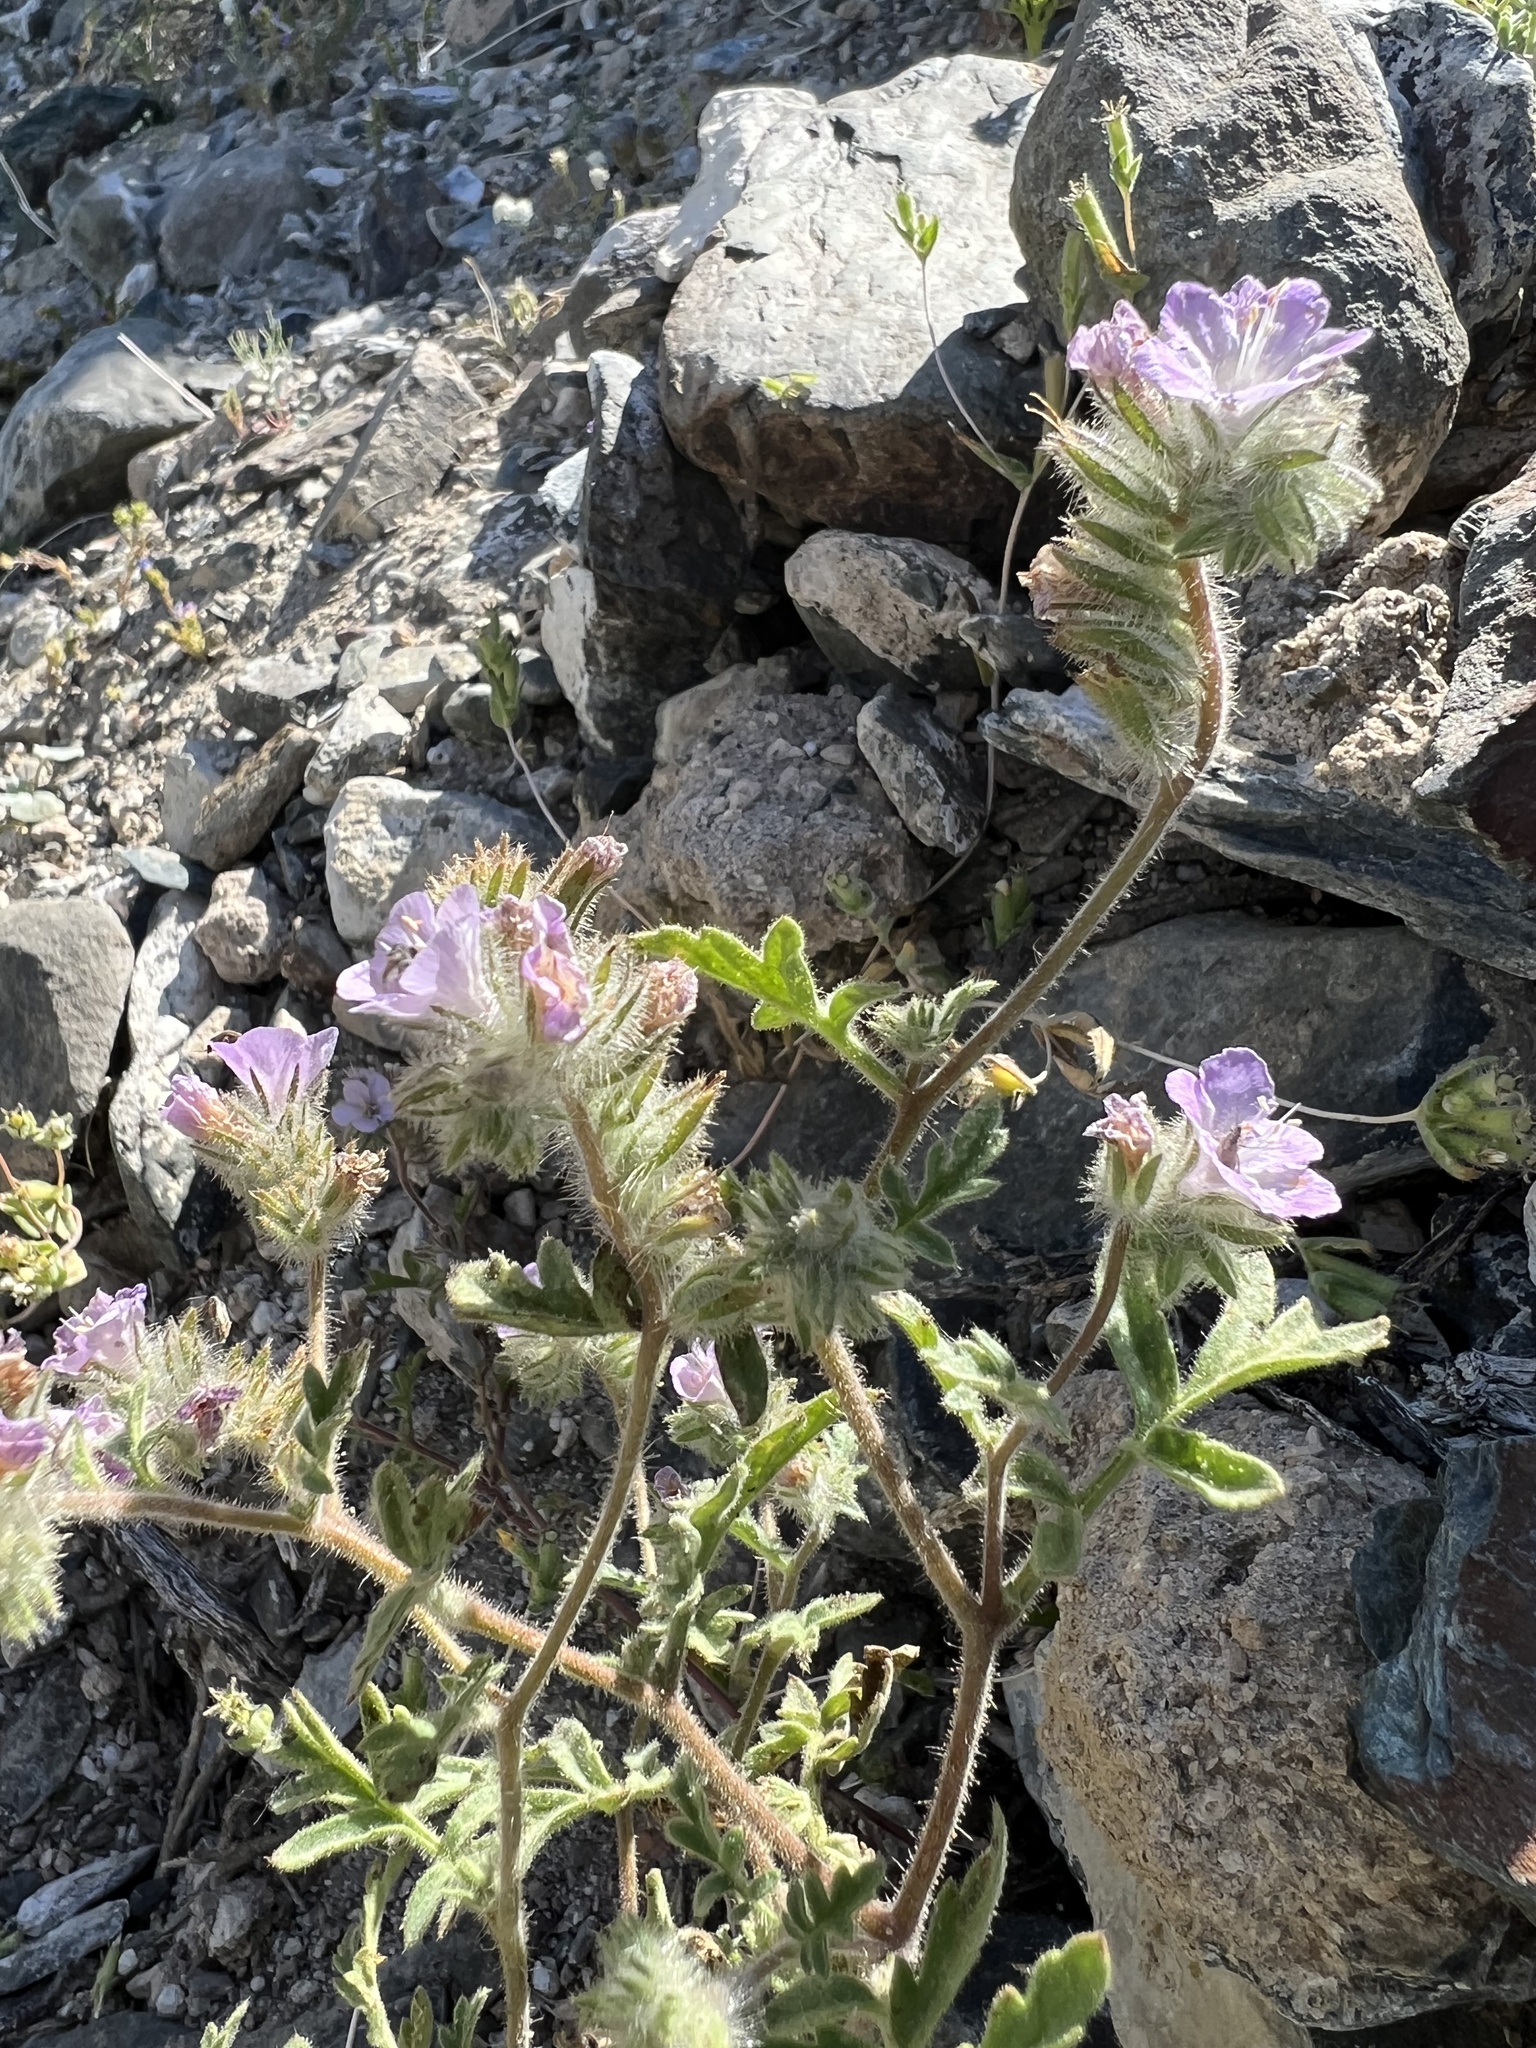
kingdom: Plantae
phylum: Tracheophyta
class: Magnoliopsida
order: Boraginales
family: Hydrophyllaceae
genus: Phacelia
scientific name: Phacelia vallis-mortae
